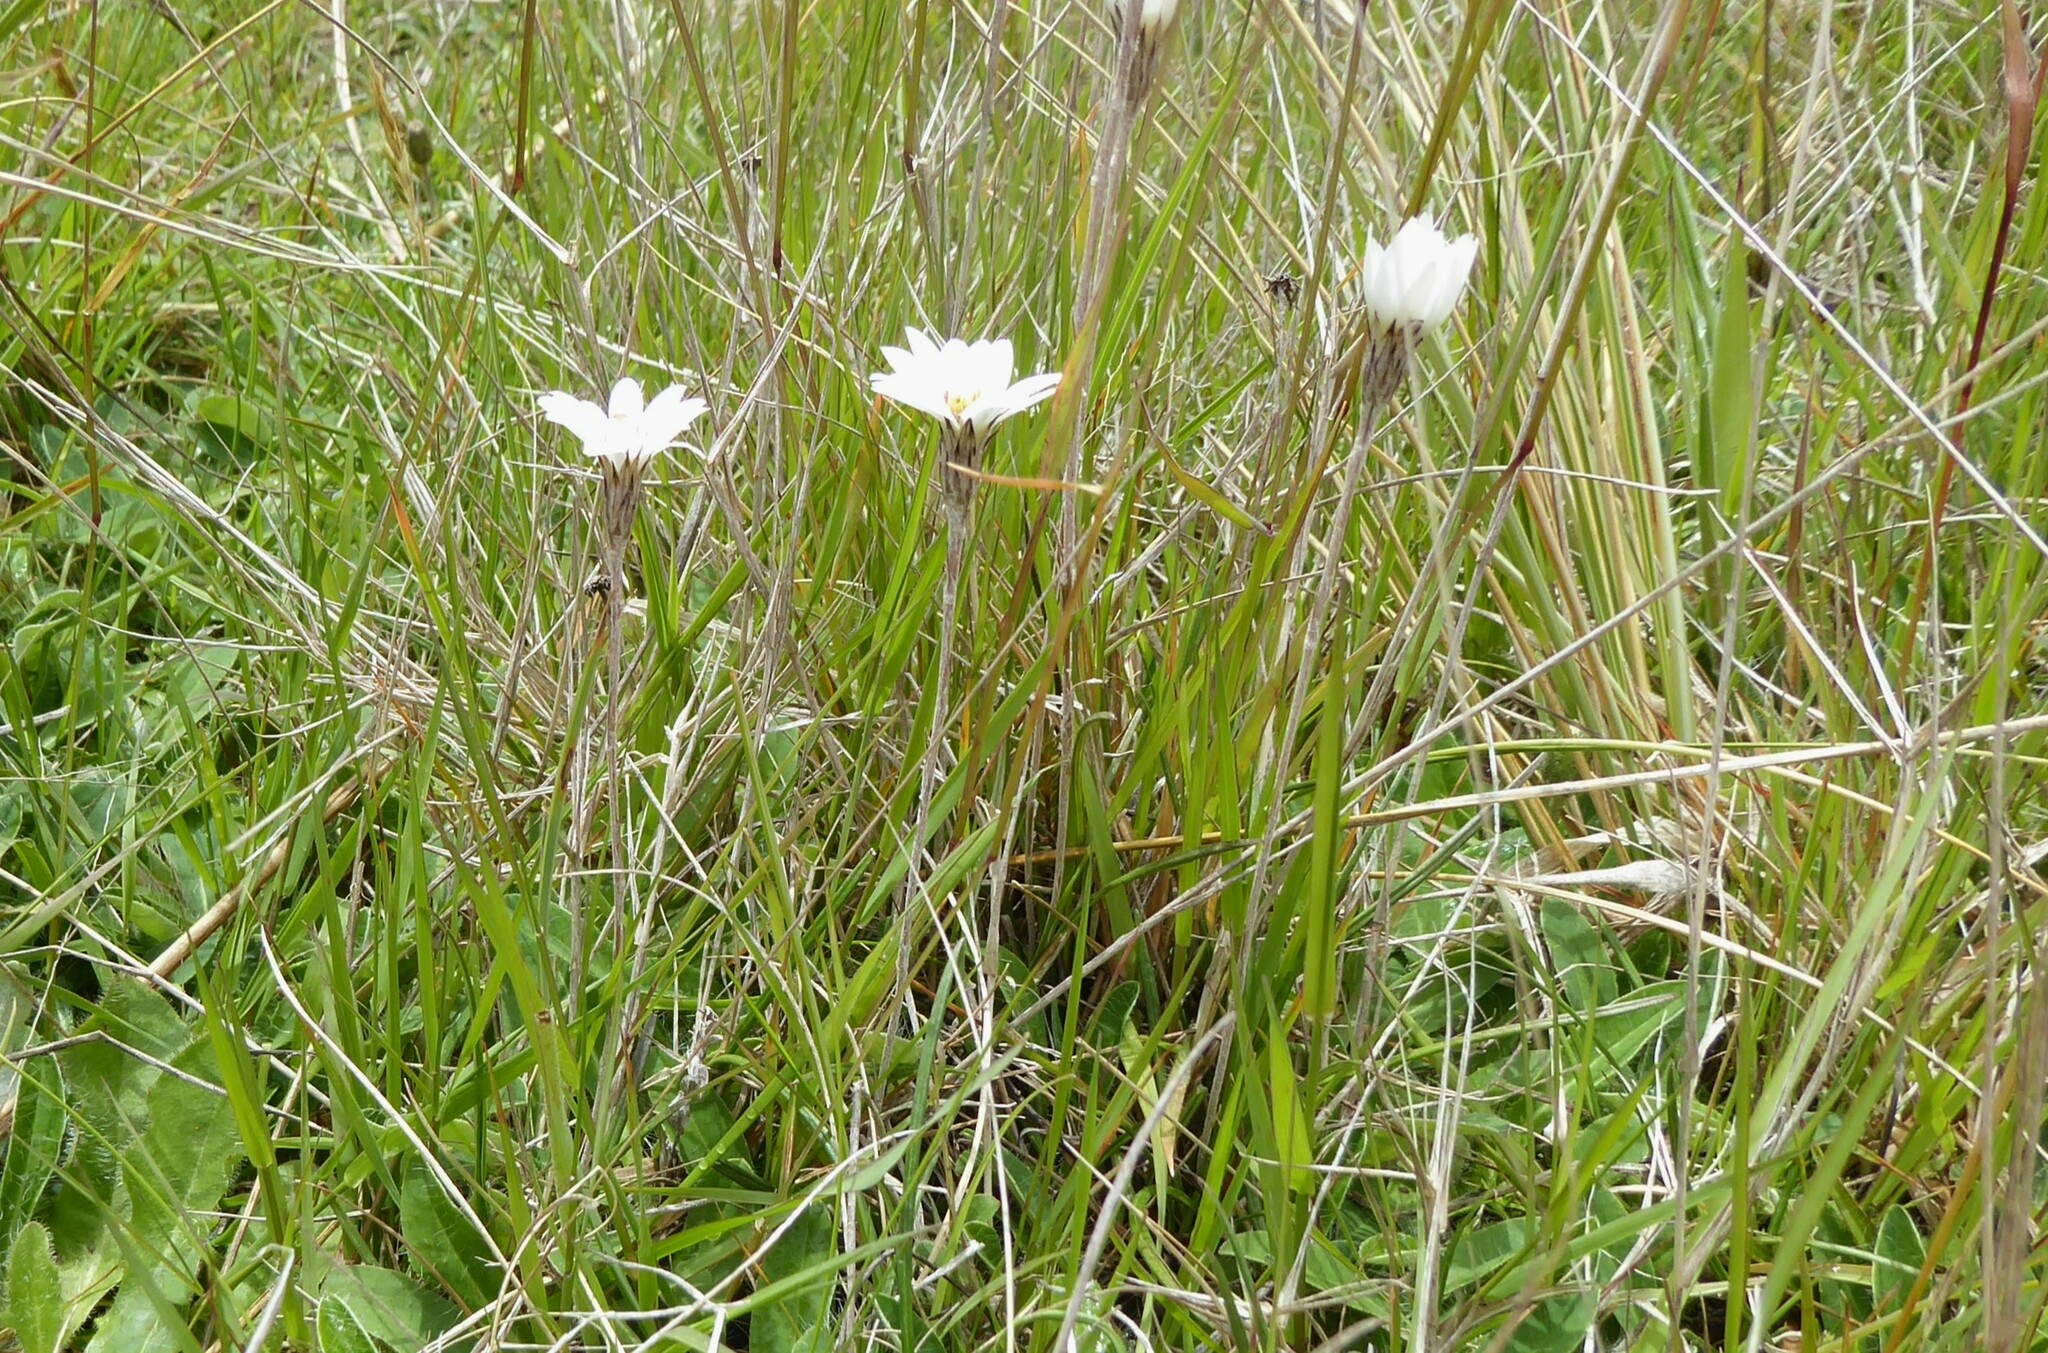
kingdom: Plantae
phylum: Tracheophyta
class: Magnoliopsida
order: Asterales
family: Asteraceae
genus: Celmisia
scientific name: Celmisia gracilenta
